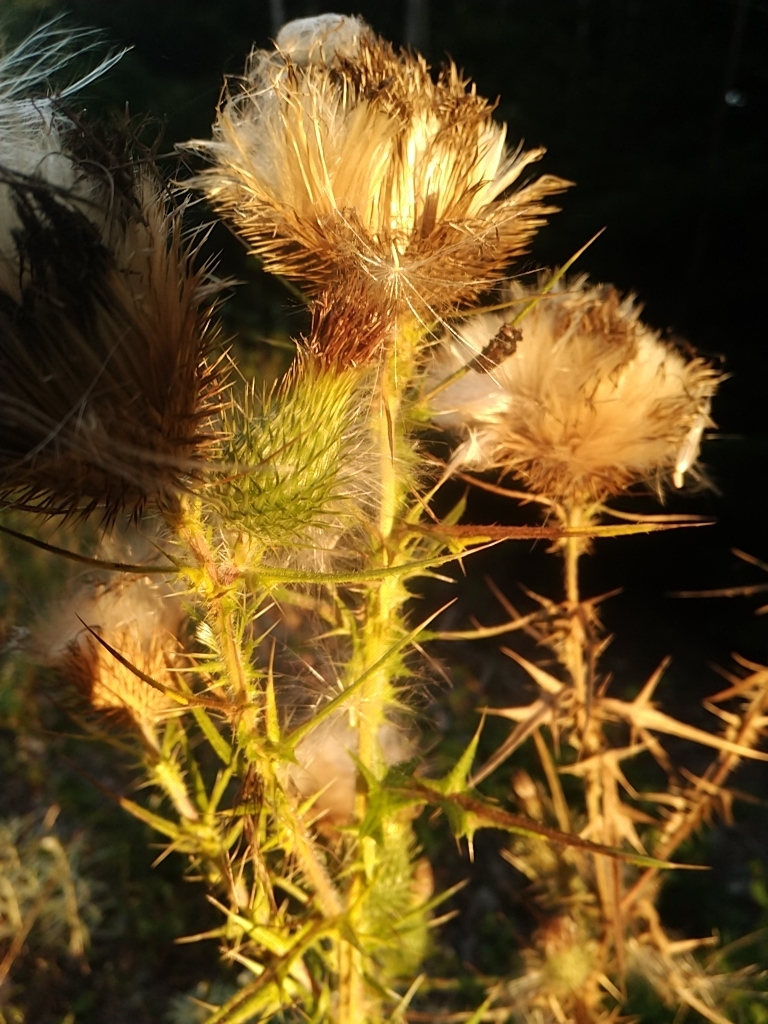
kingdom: Plantae
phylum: Tracheophyta
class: Magnoliopsida
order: Asterales
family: Asteraceae
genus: Cirsium
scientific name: Cirsium vulgare
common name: Bull thistle
